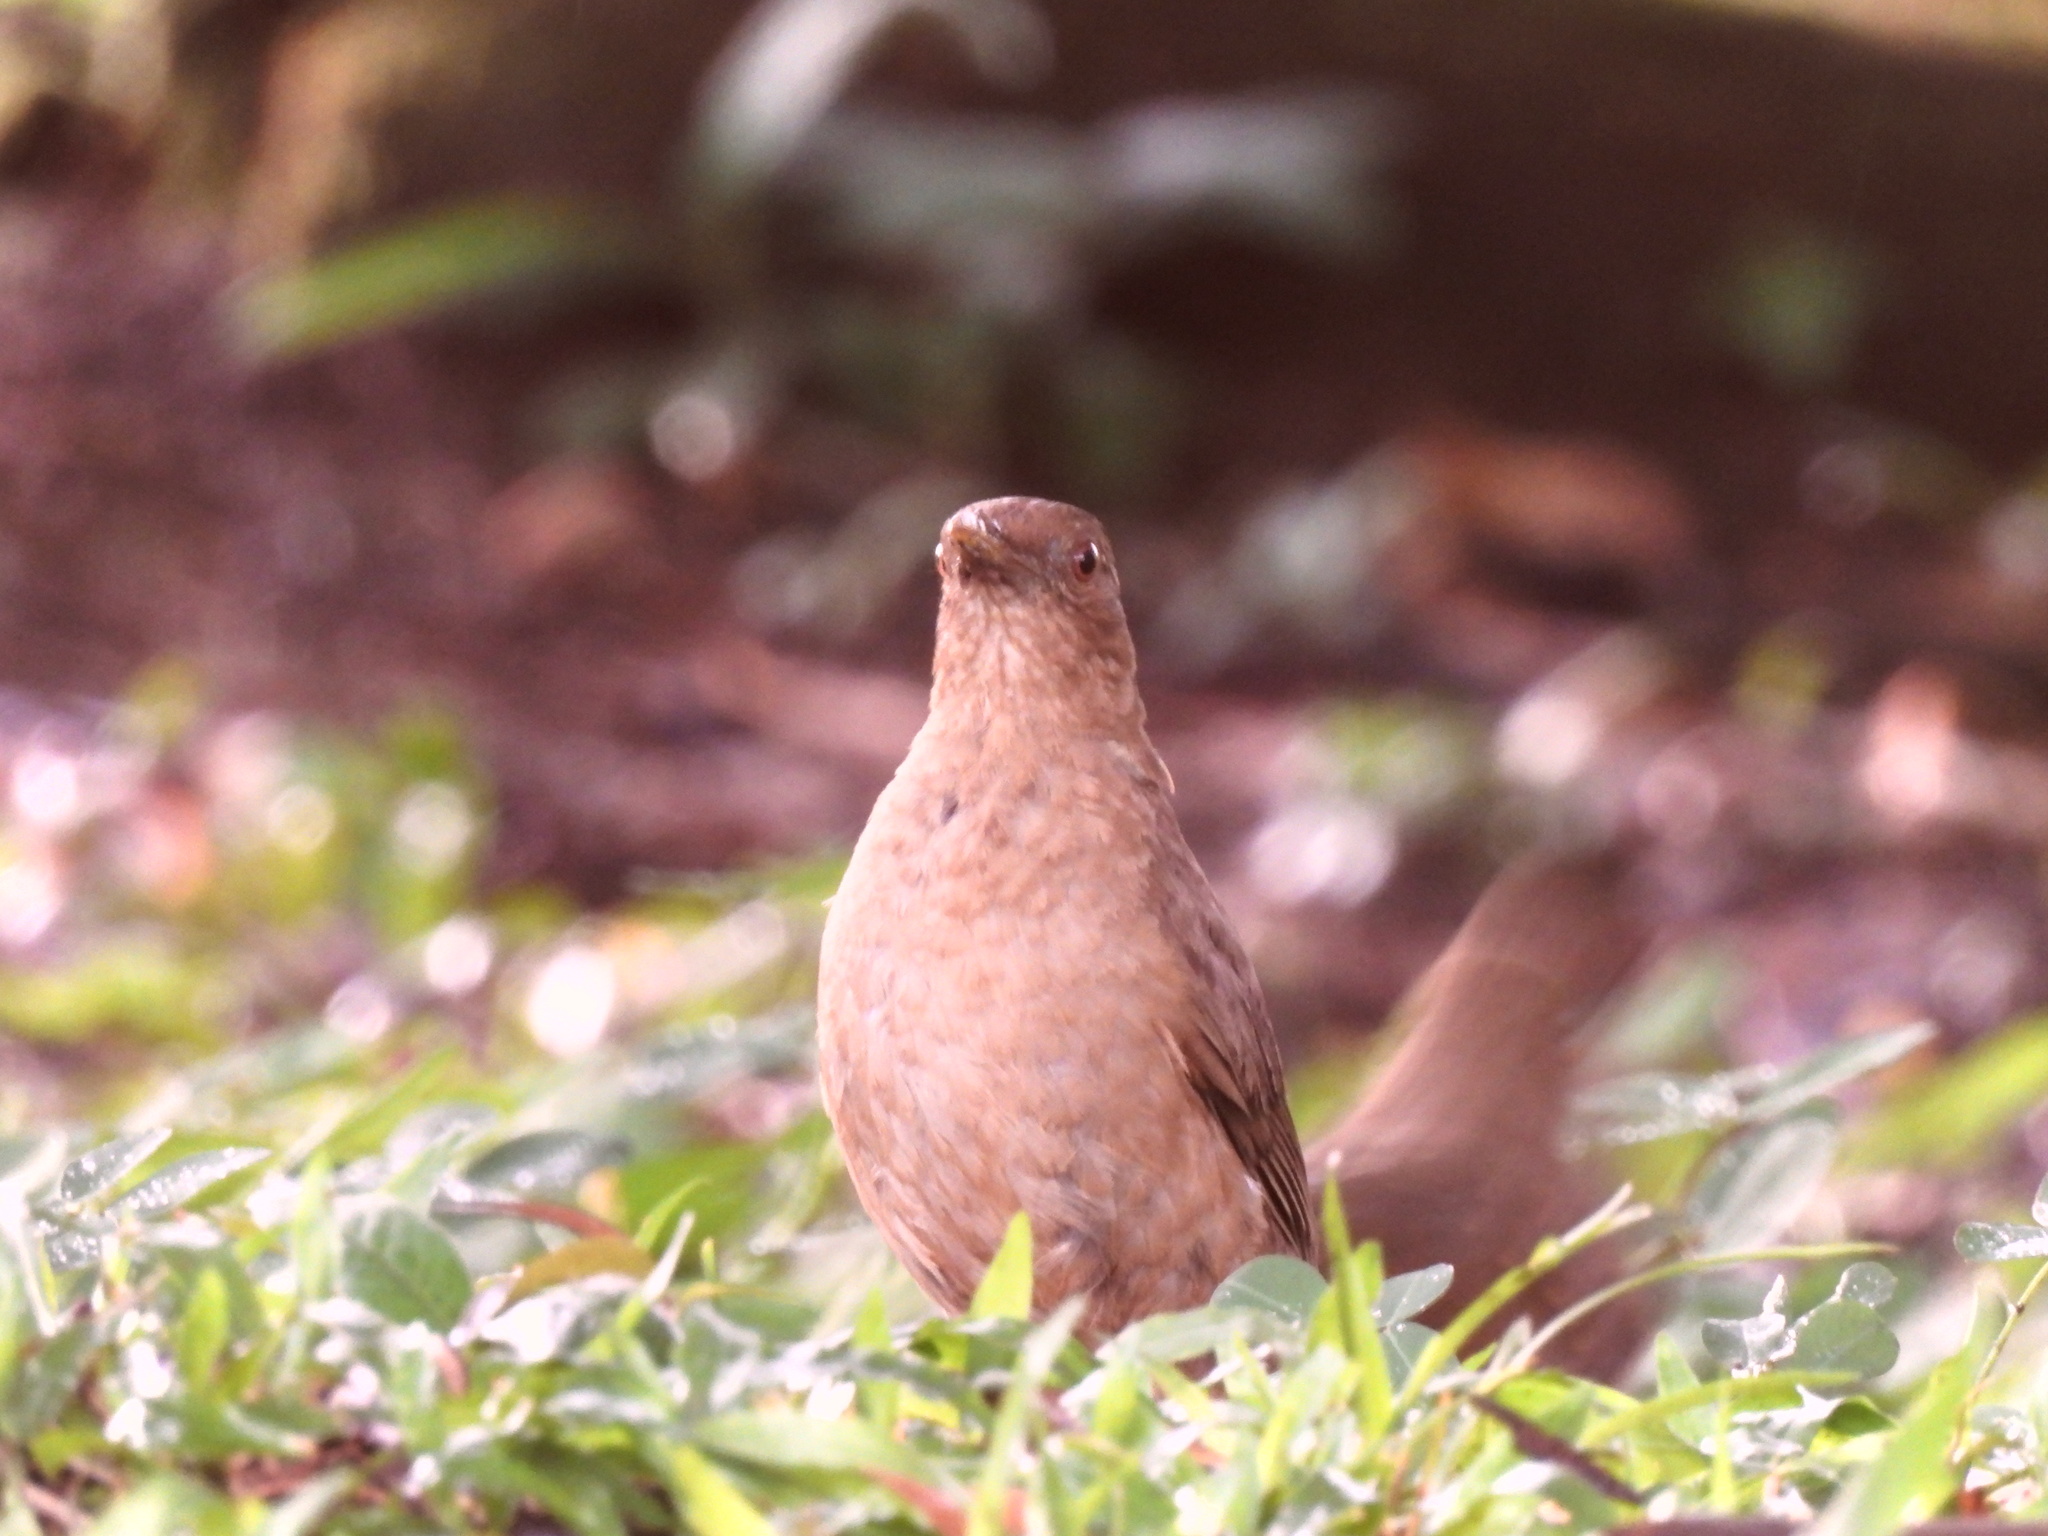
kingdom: Animalia
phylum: Chordata
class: Aves
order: Passeriformes
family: Turdidae
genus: Turdus
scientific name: Turdus grayi
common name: Clay-colored thrush
